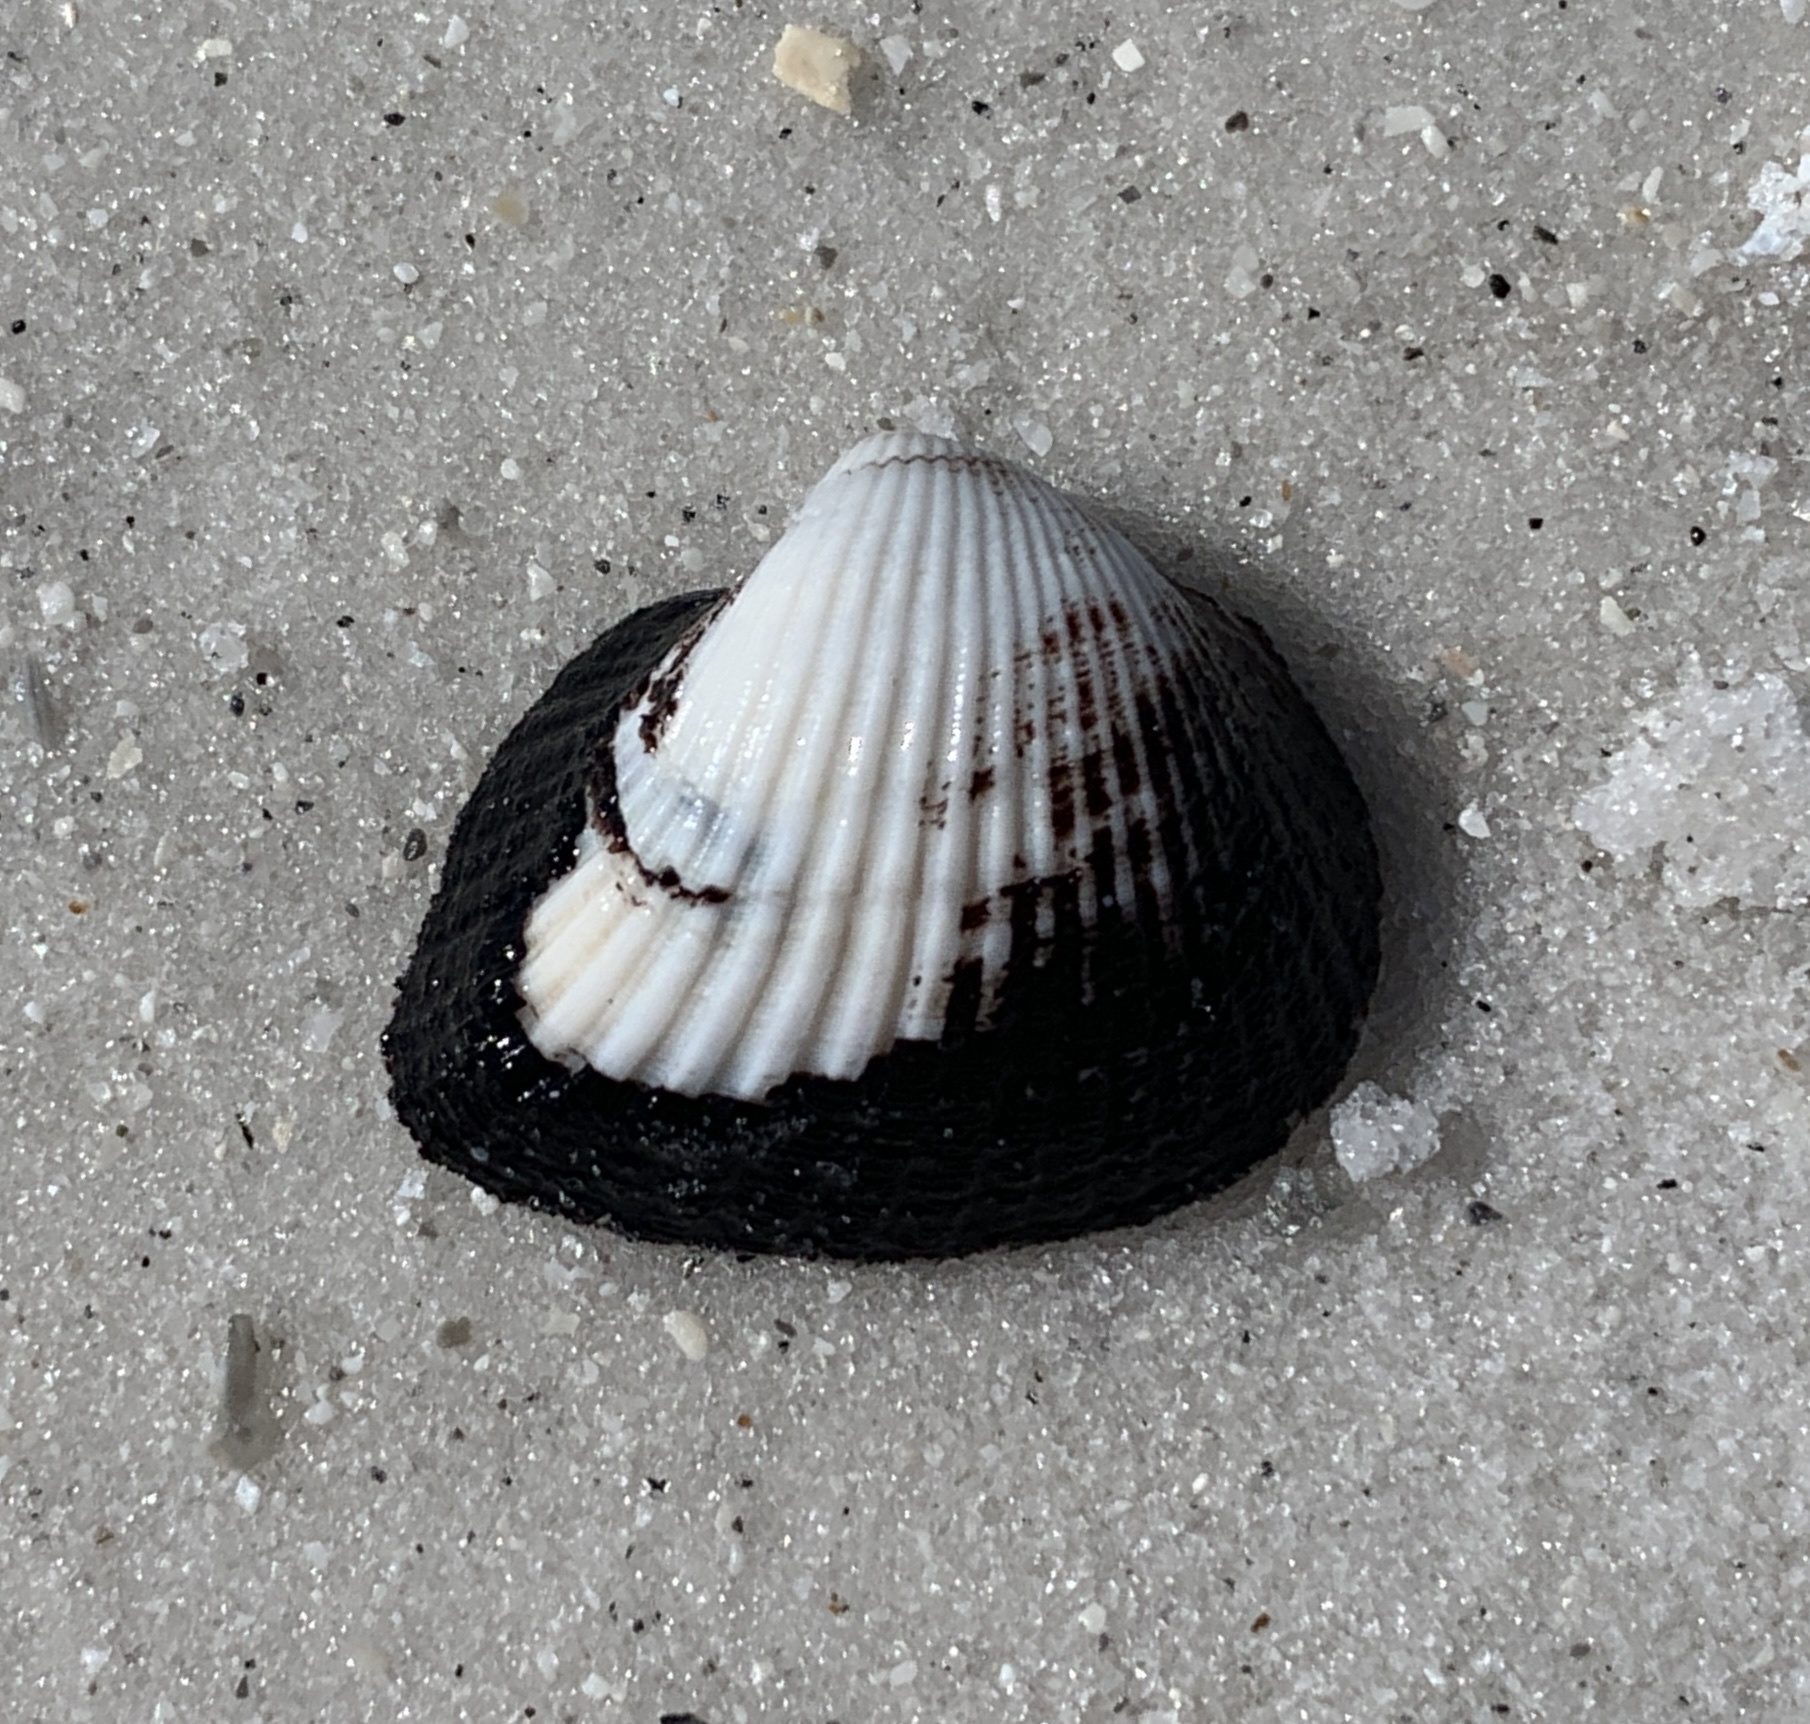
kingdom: Animalia
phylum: Mollusca
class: Bivalvia
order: Arcida
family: Noetiidae
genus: Noetia
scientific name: Noetia ponderosa
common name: Ponderous ark
